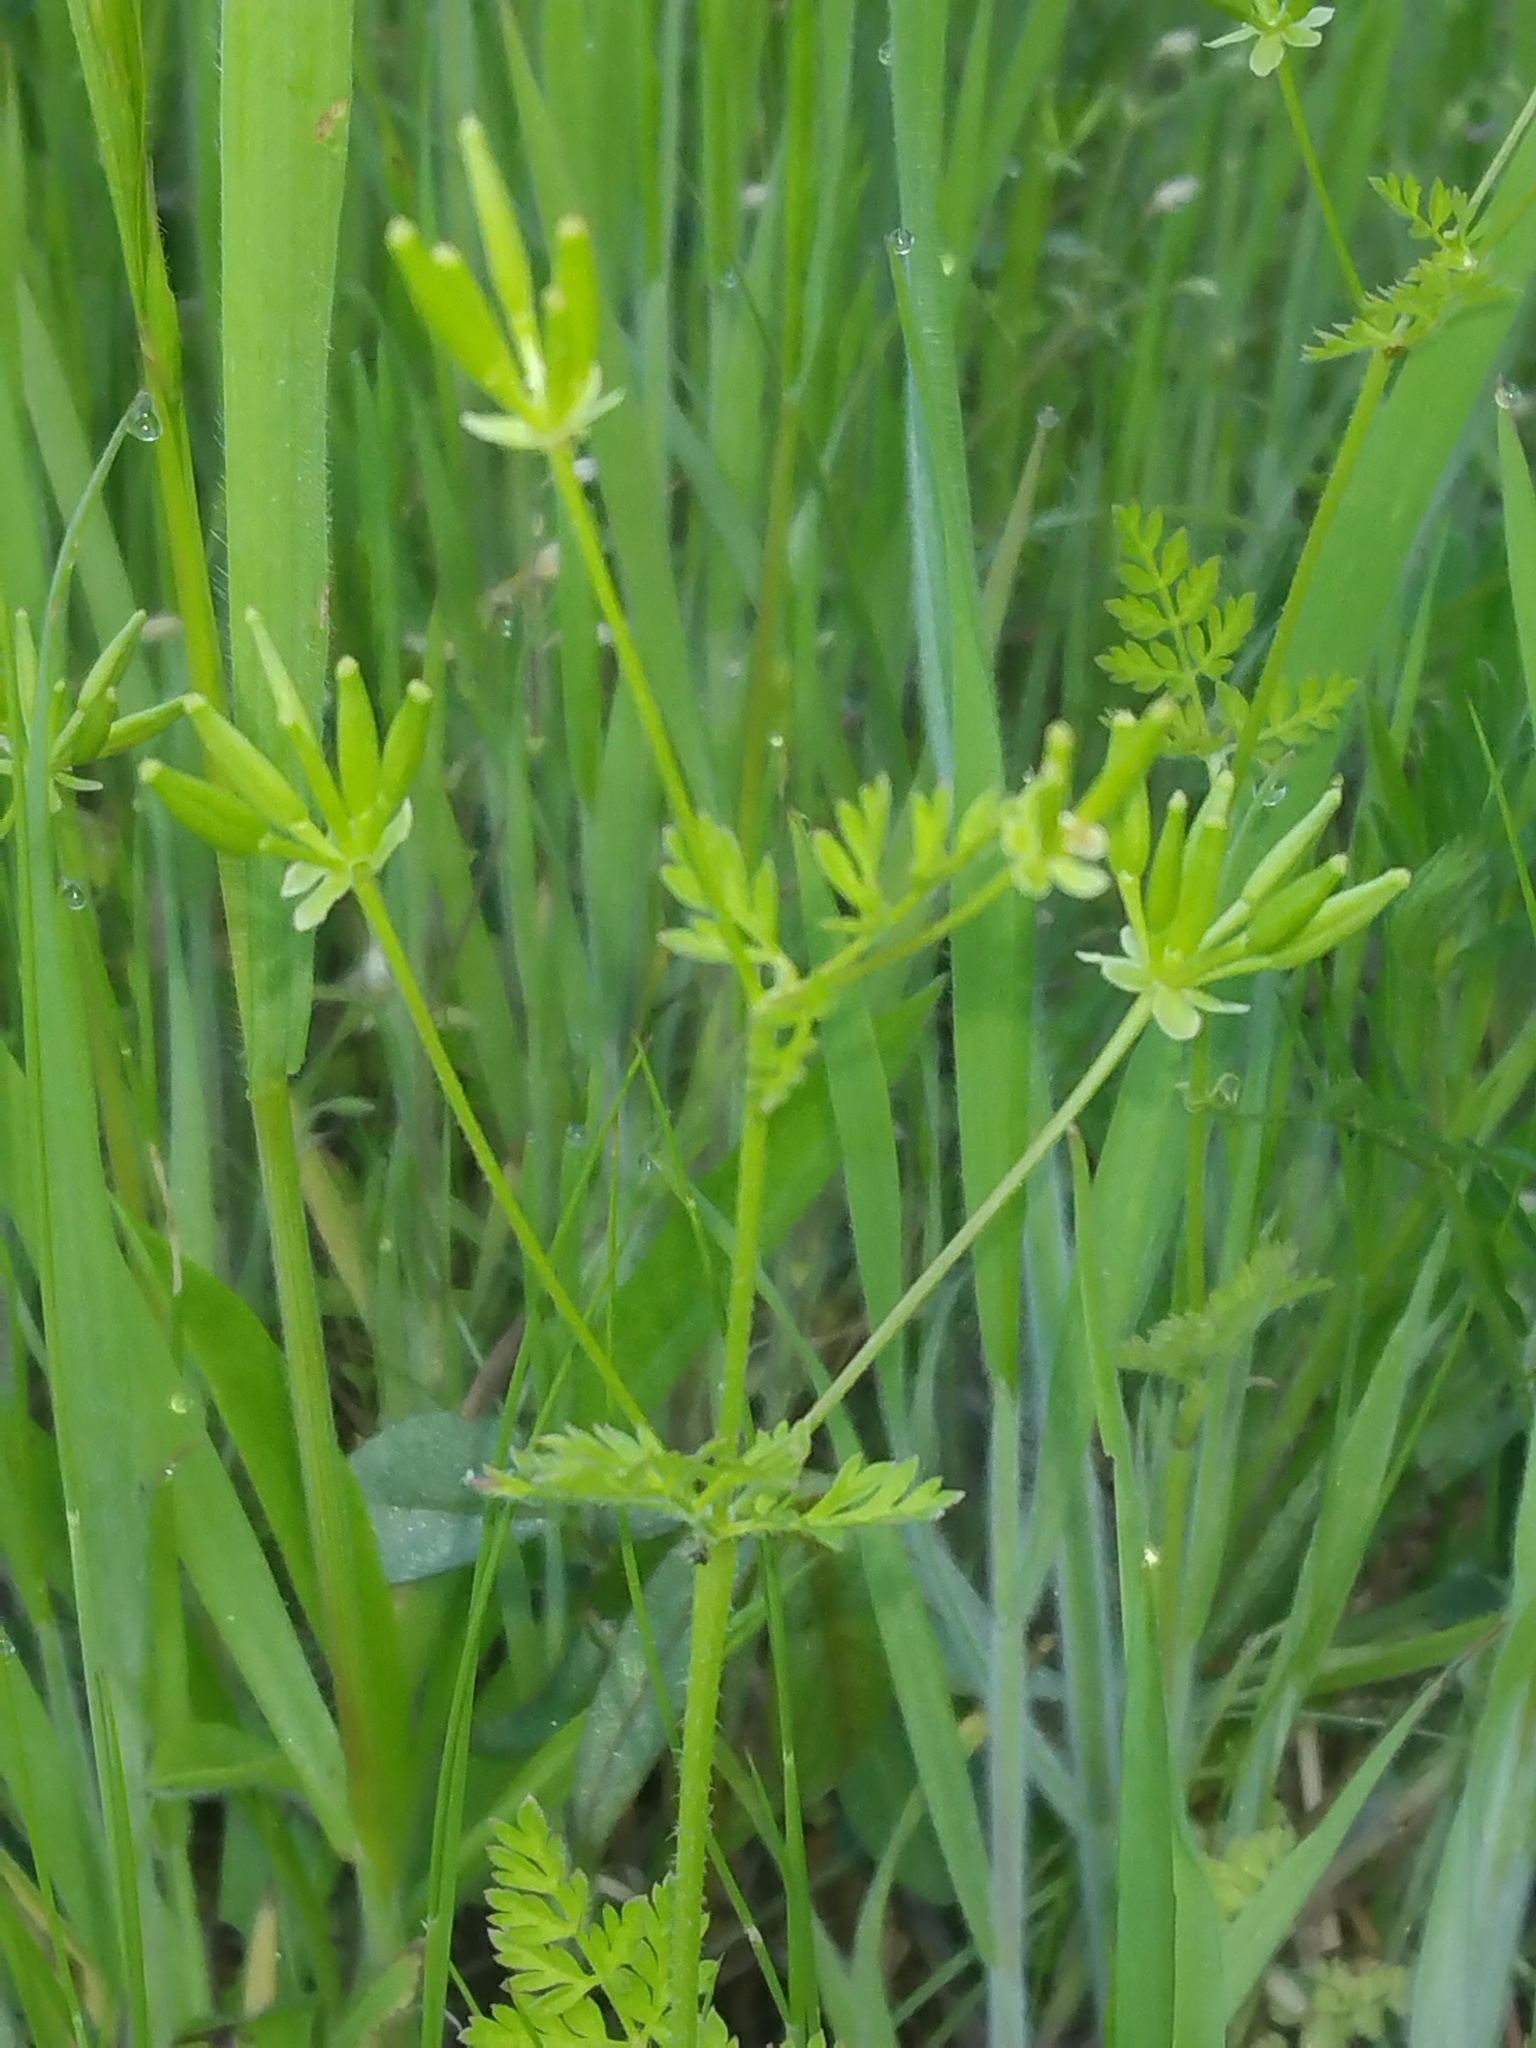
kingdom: Plantae
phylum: Tracheophyta
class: Magnoliopsida
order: Apiales
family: Apiaceae
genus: Chaerophyllum
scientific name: Chaerophyllum tainturieri
